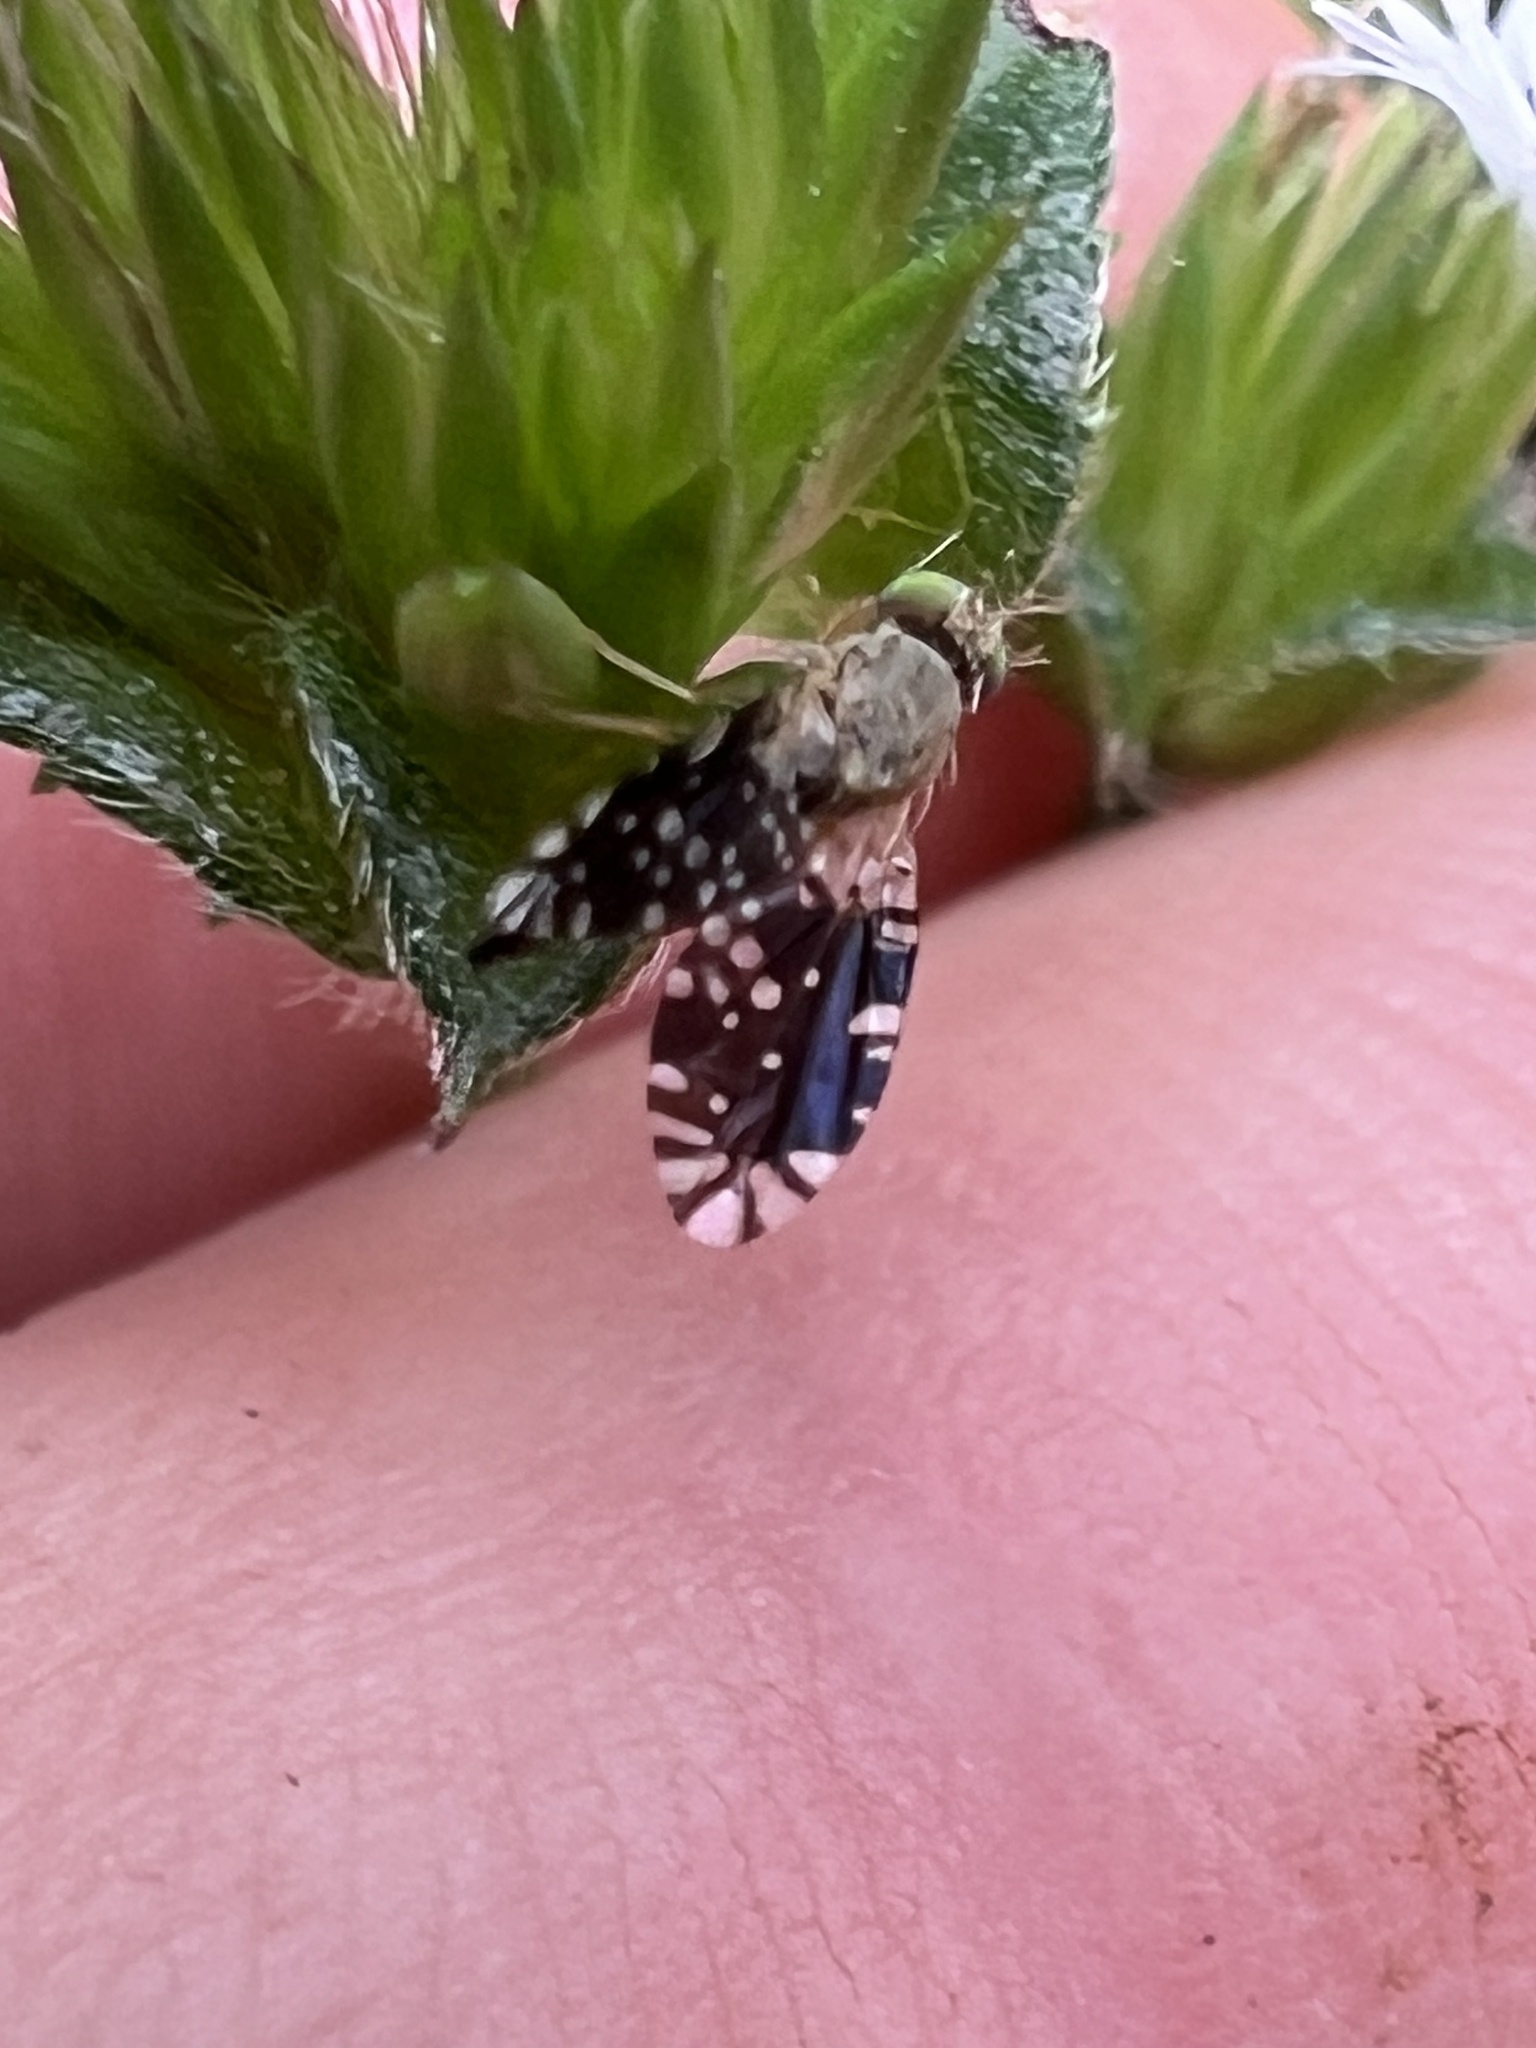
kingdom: Animalia
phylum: Arthropoda
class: Insecta
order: Diptera
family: Tephritidae
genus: Tetreuaresta
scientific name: Tetreuaresta obscuriventris
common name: Fruit fly
